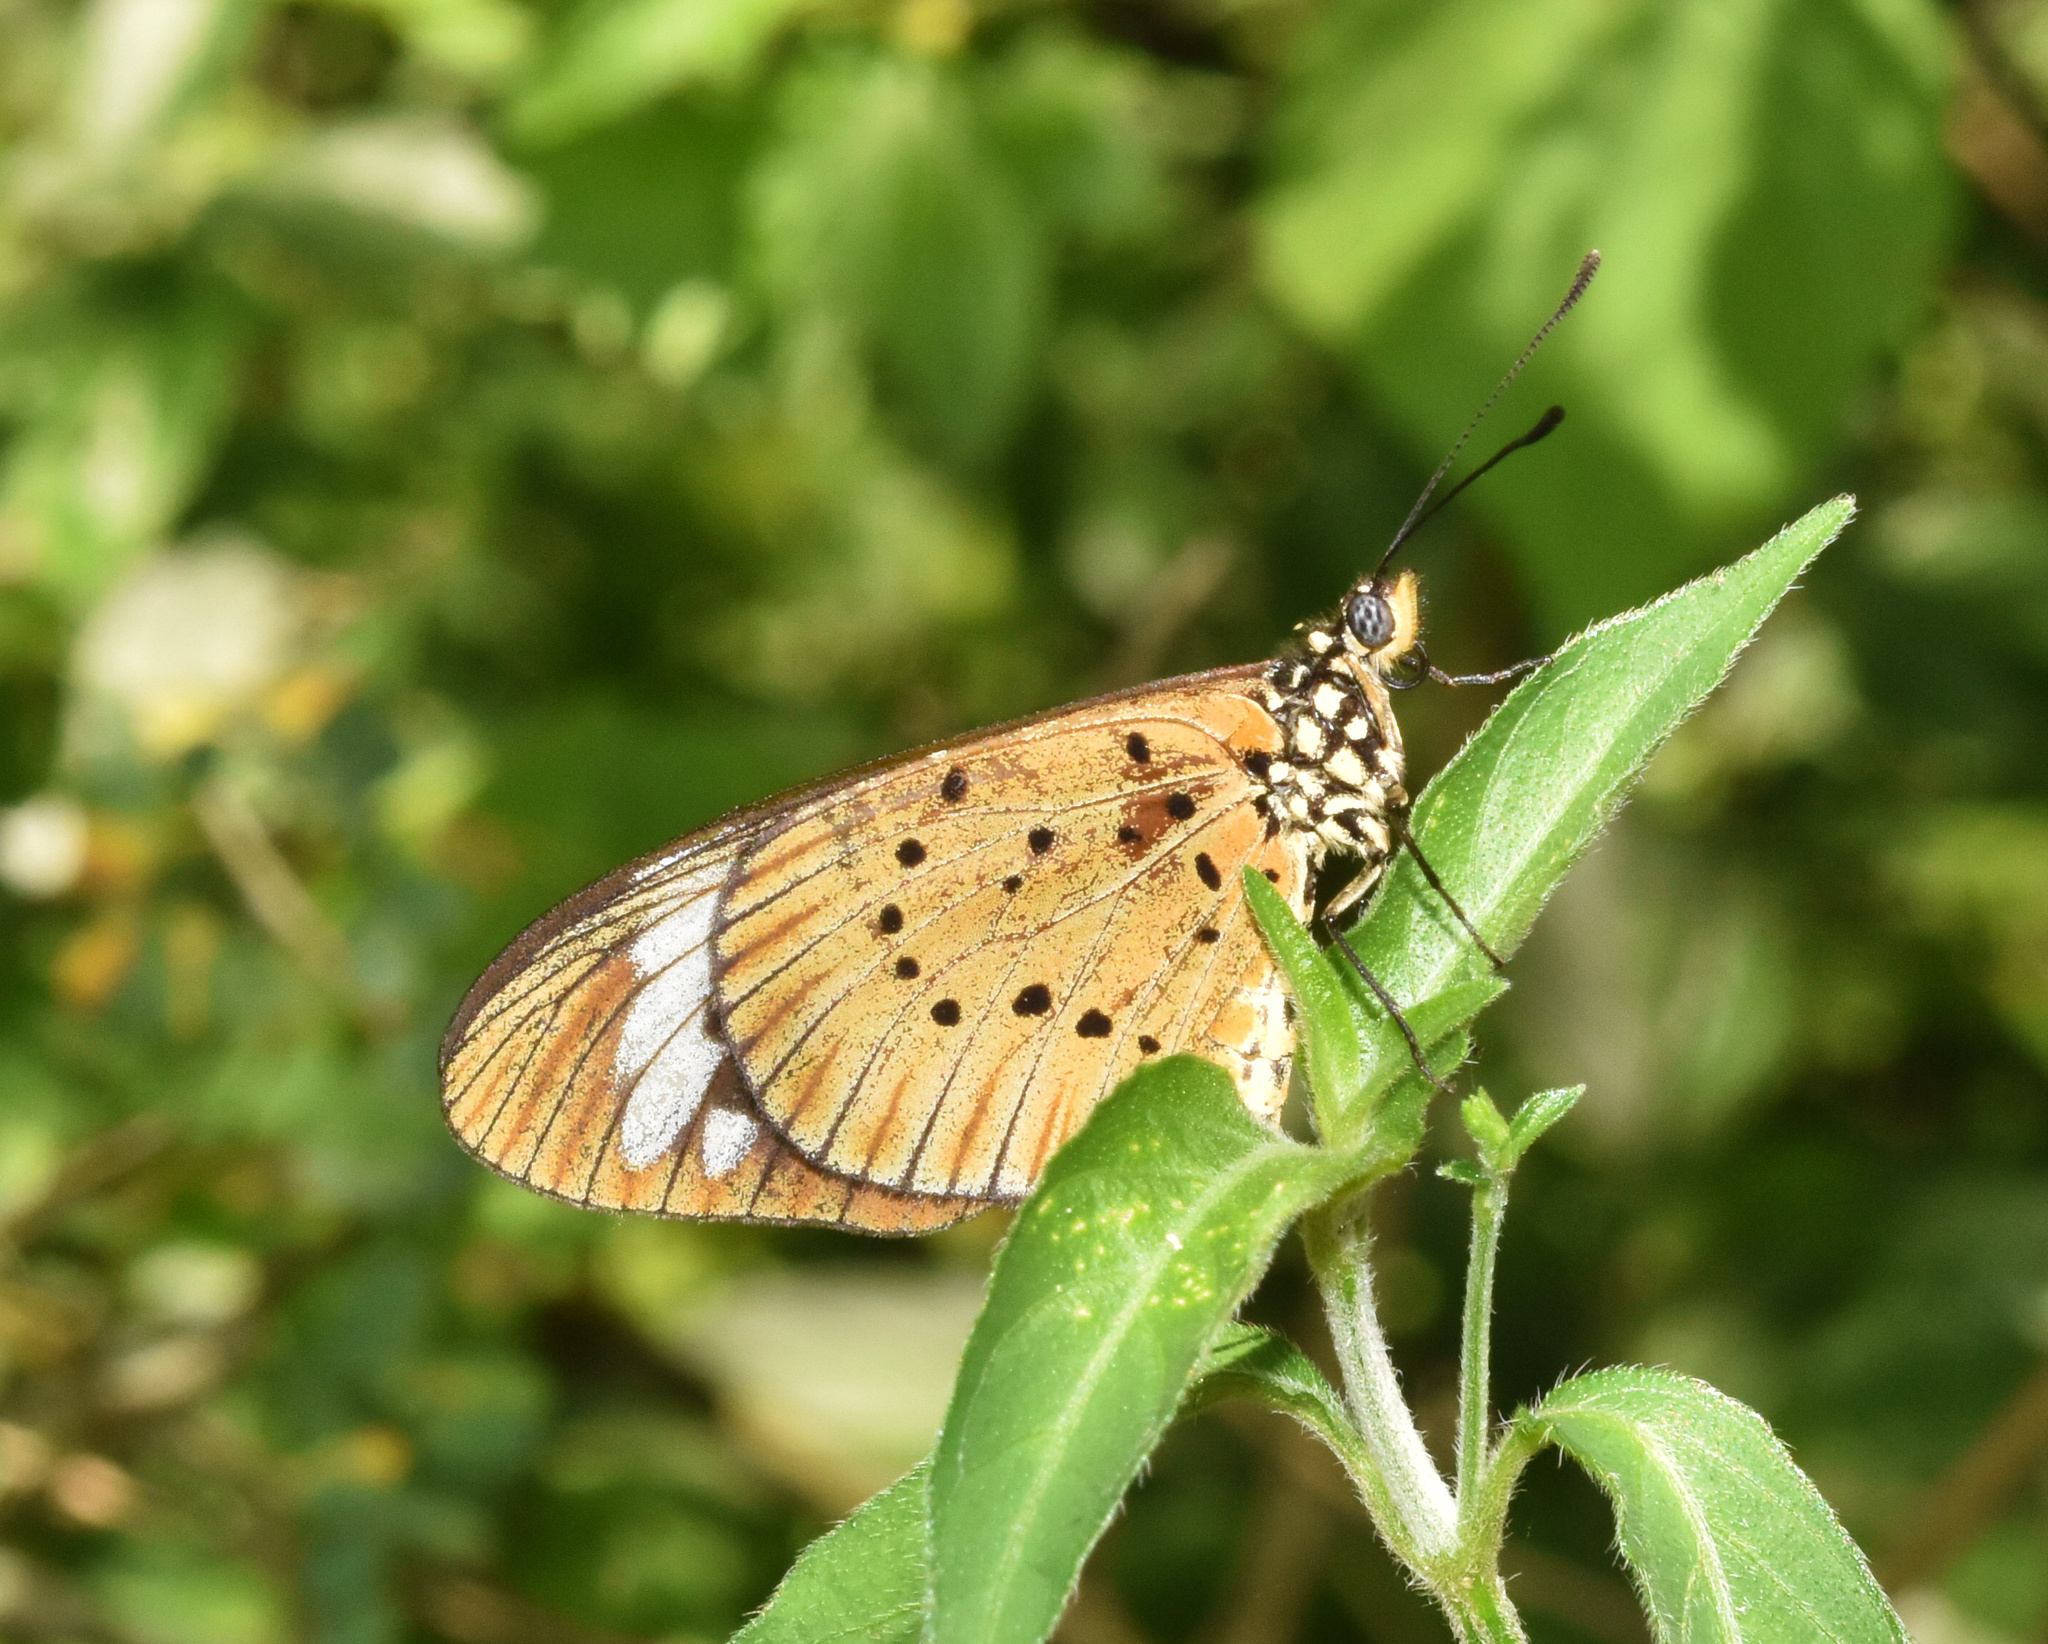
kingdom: Animalia
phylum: Arthropoda
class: Insecta
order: Lepidoptera
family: Nymphalidae
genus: Acraea
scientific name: Acraea Telchinia encedon
